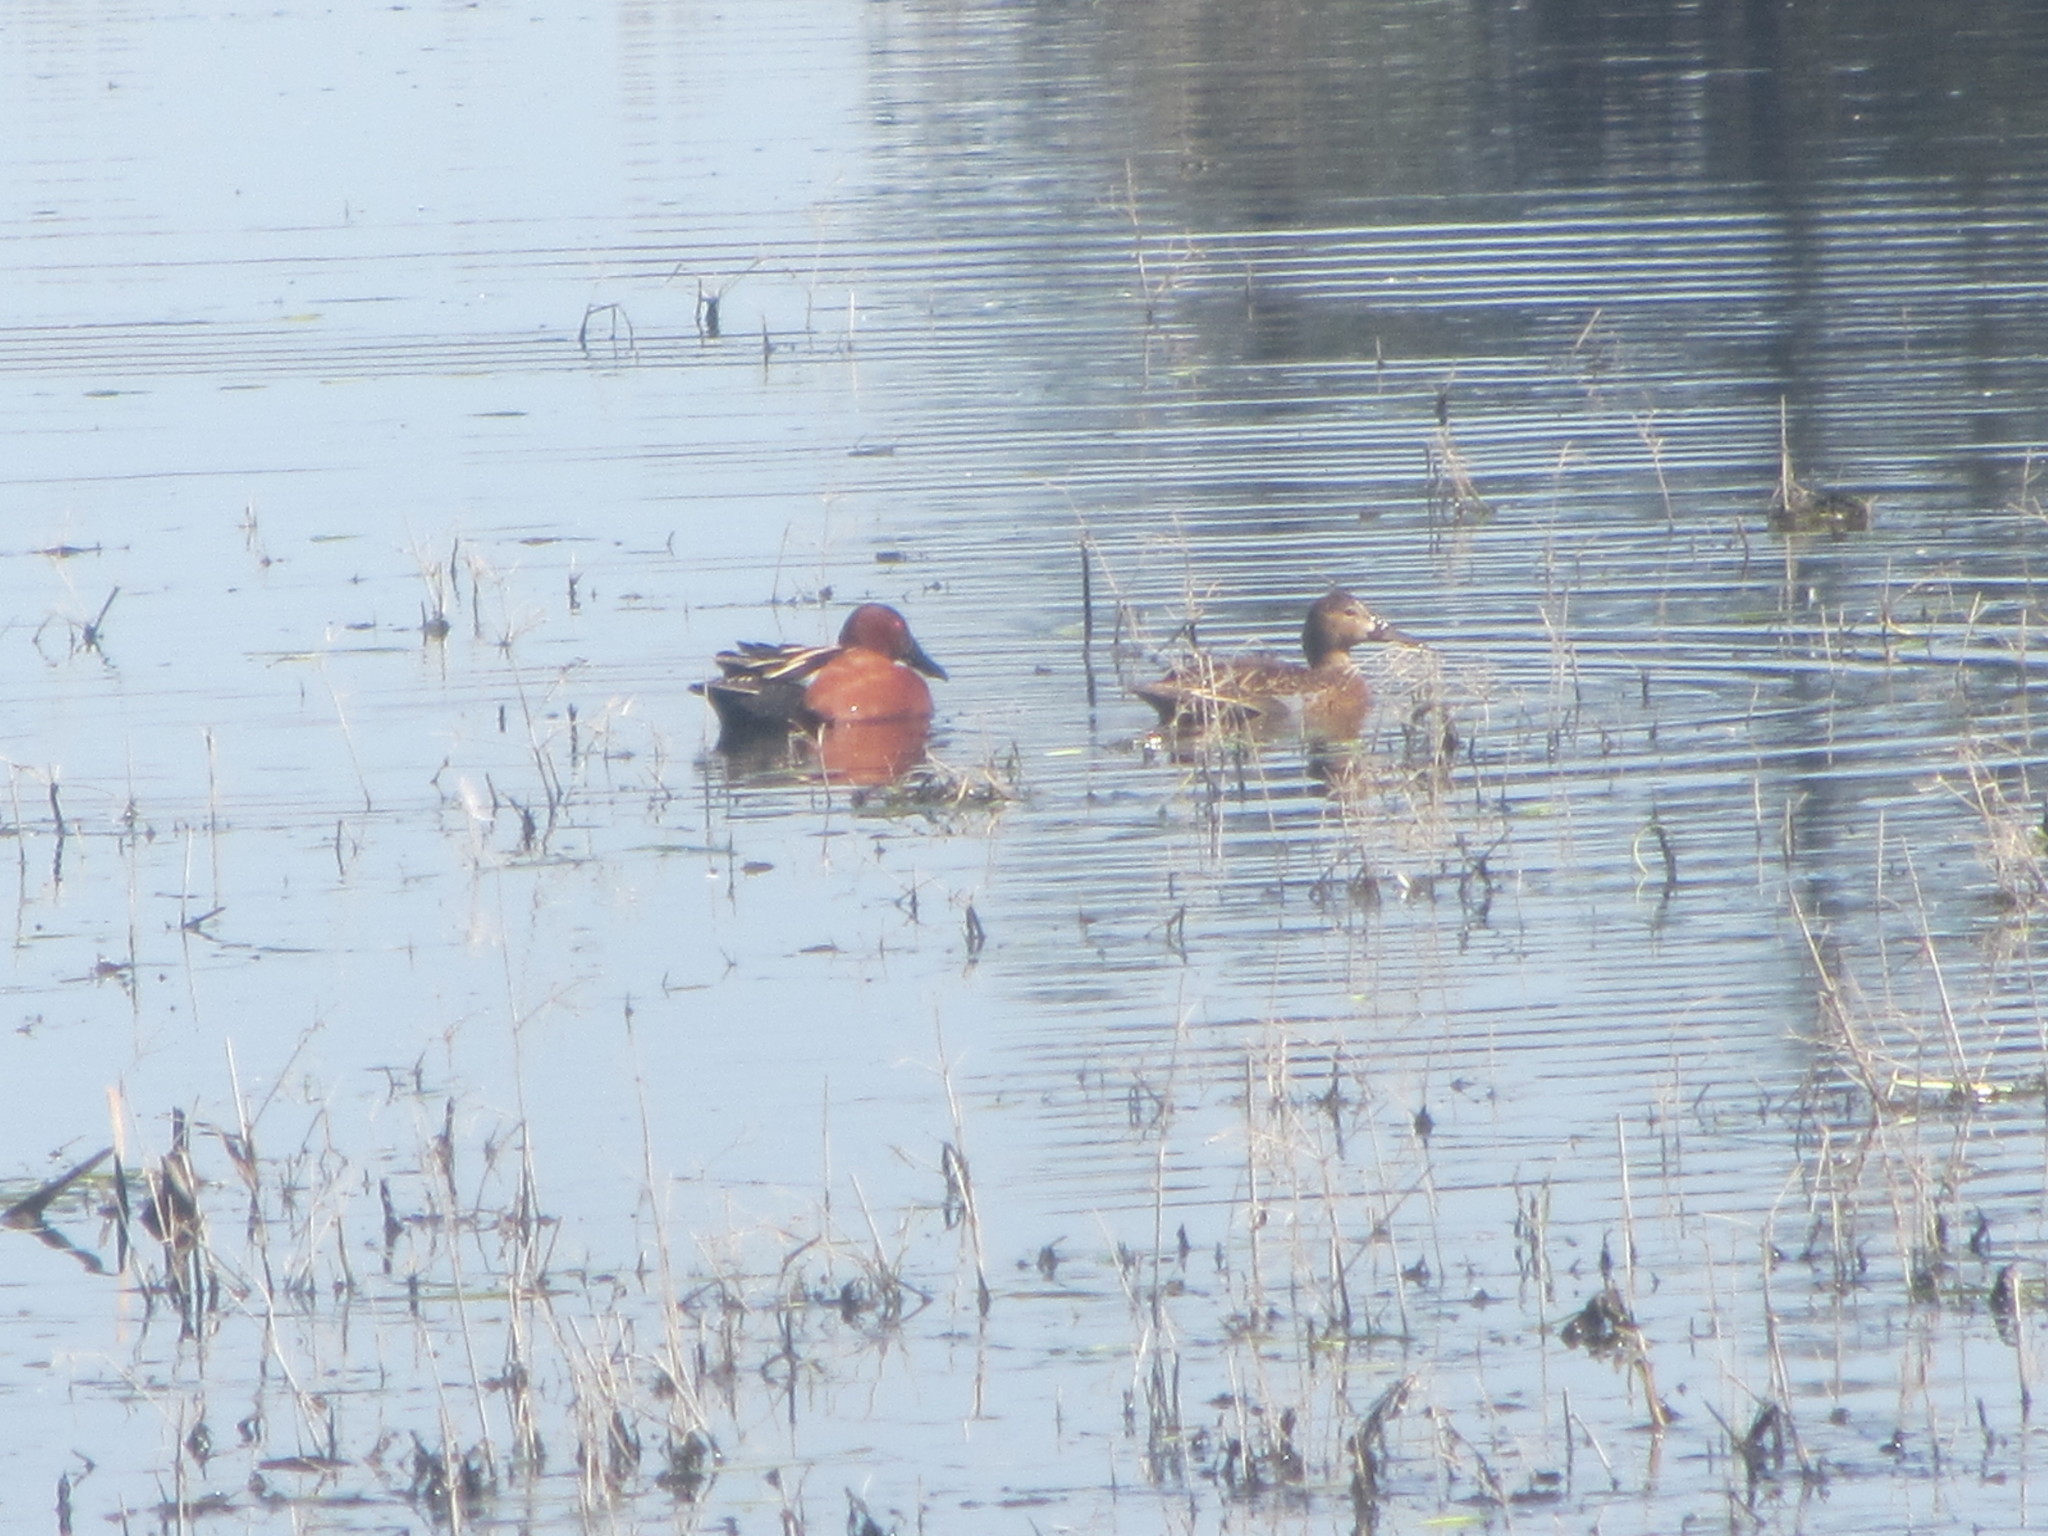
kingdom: Animalia
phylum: Chordata
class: Aves
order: Anseriformes
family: Anatidae
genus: Spatula
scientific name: Spatula cyanoptera
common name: Cinnamon teal
